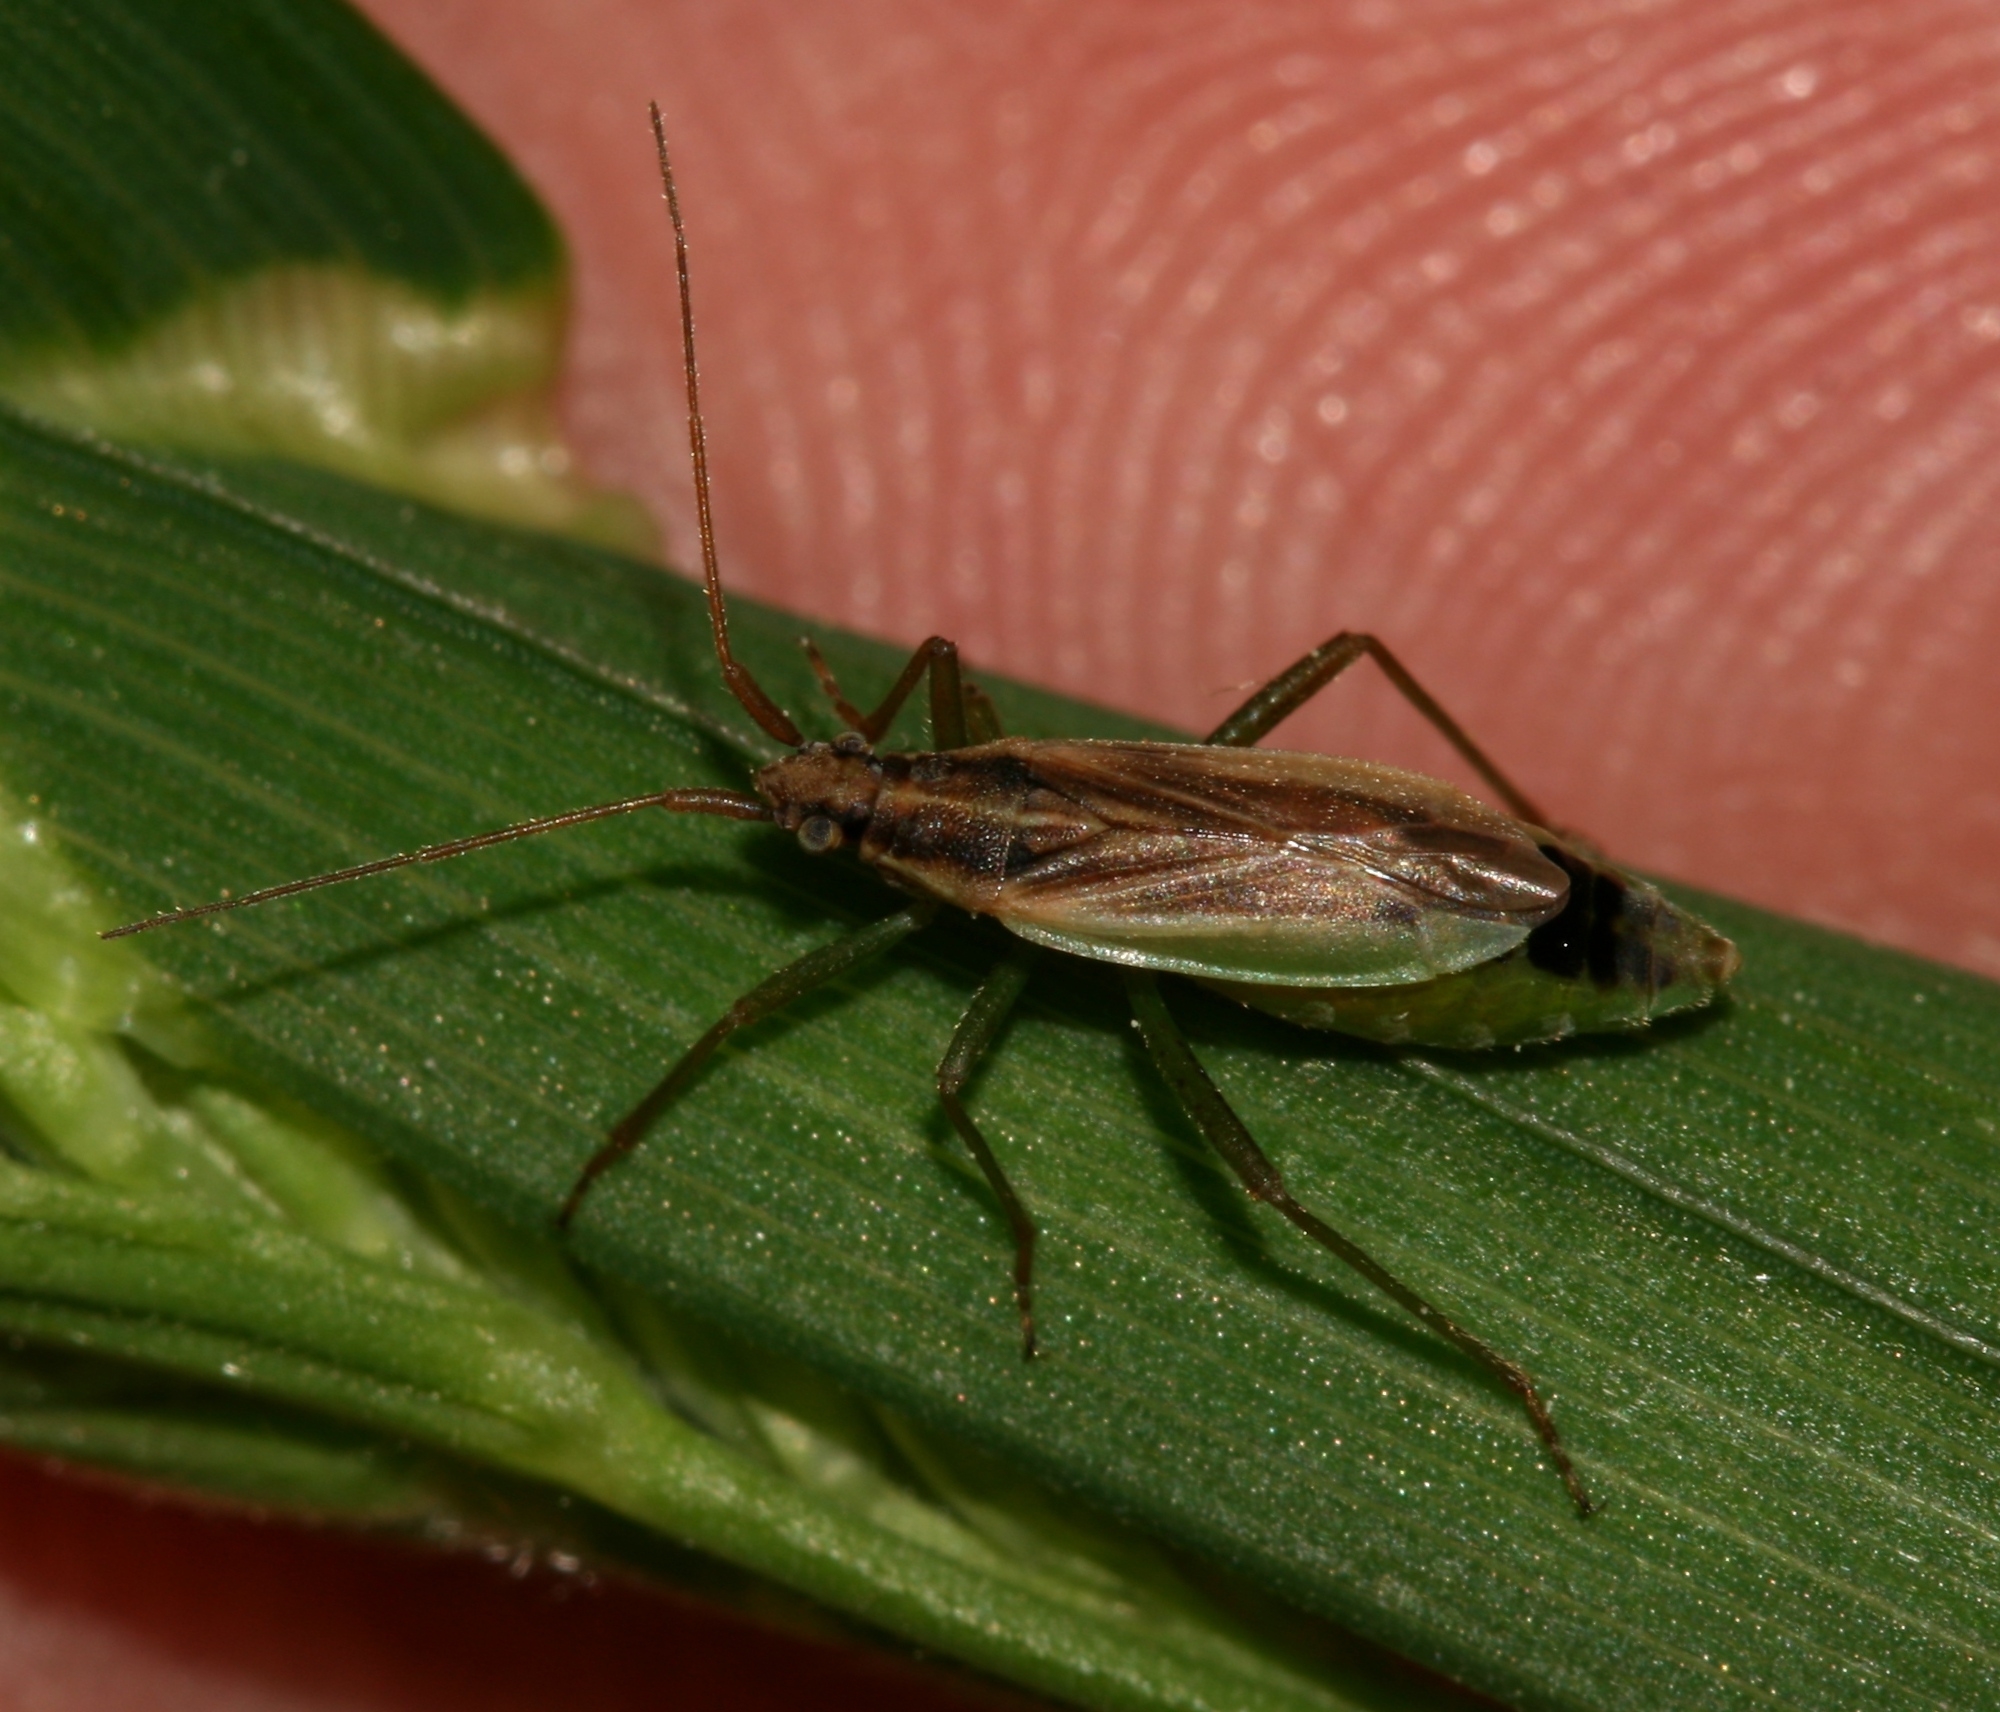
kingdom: Animalia
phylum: Arthropoda
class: Insecta
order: Hemiptera
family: Miridae
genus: Stenodema
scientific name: Stenodema holsata
